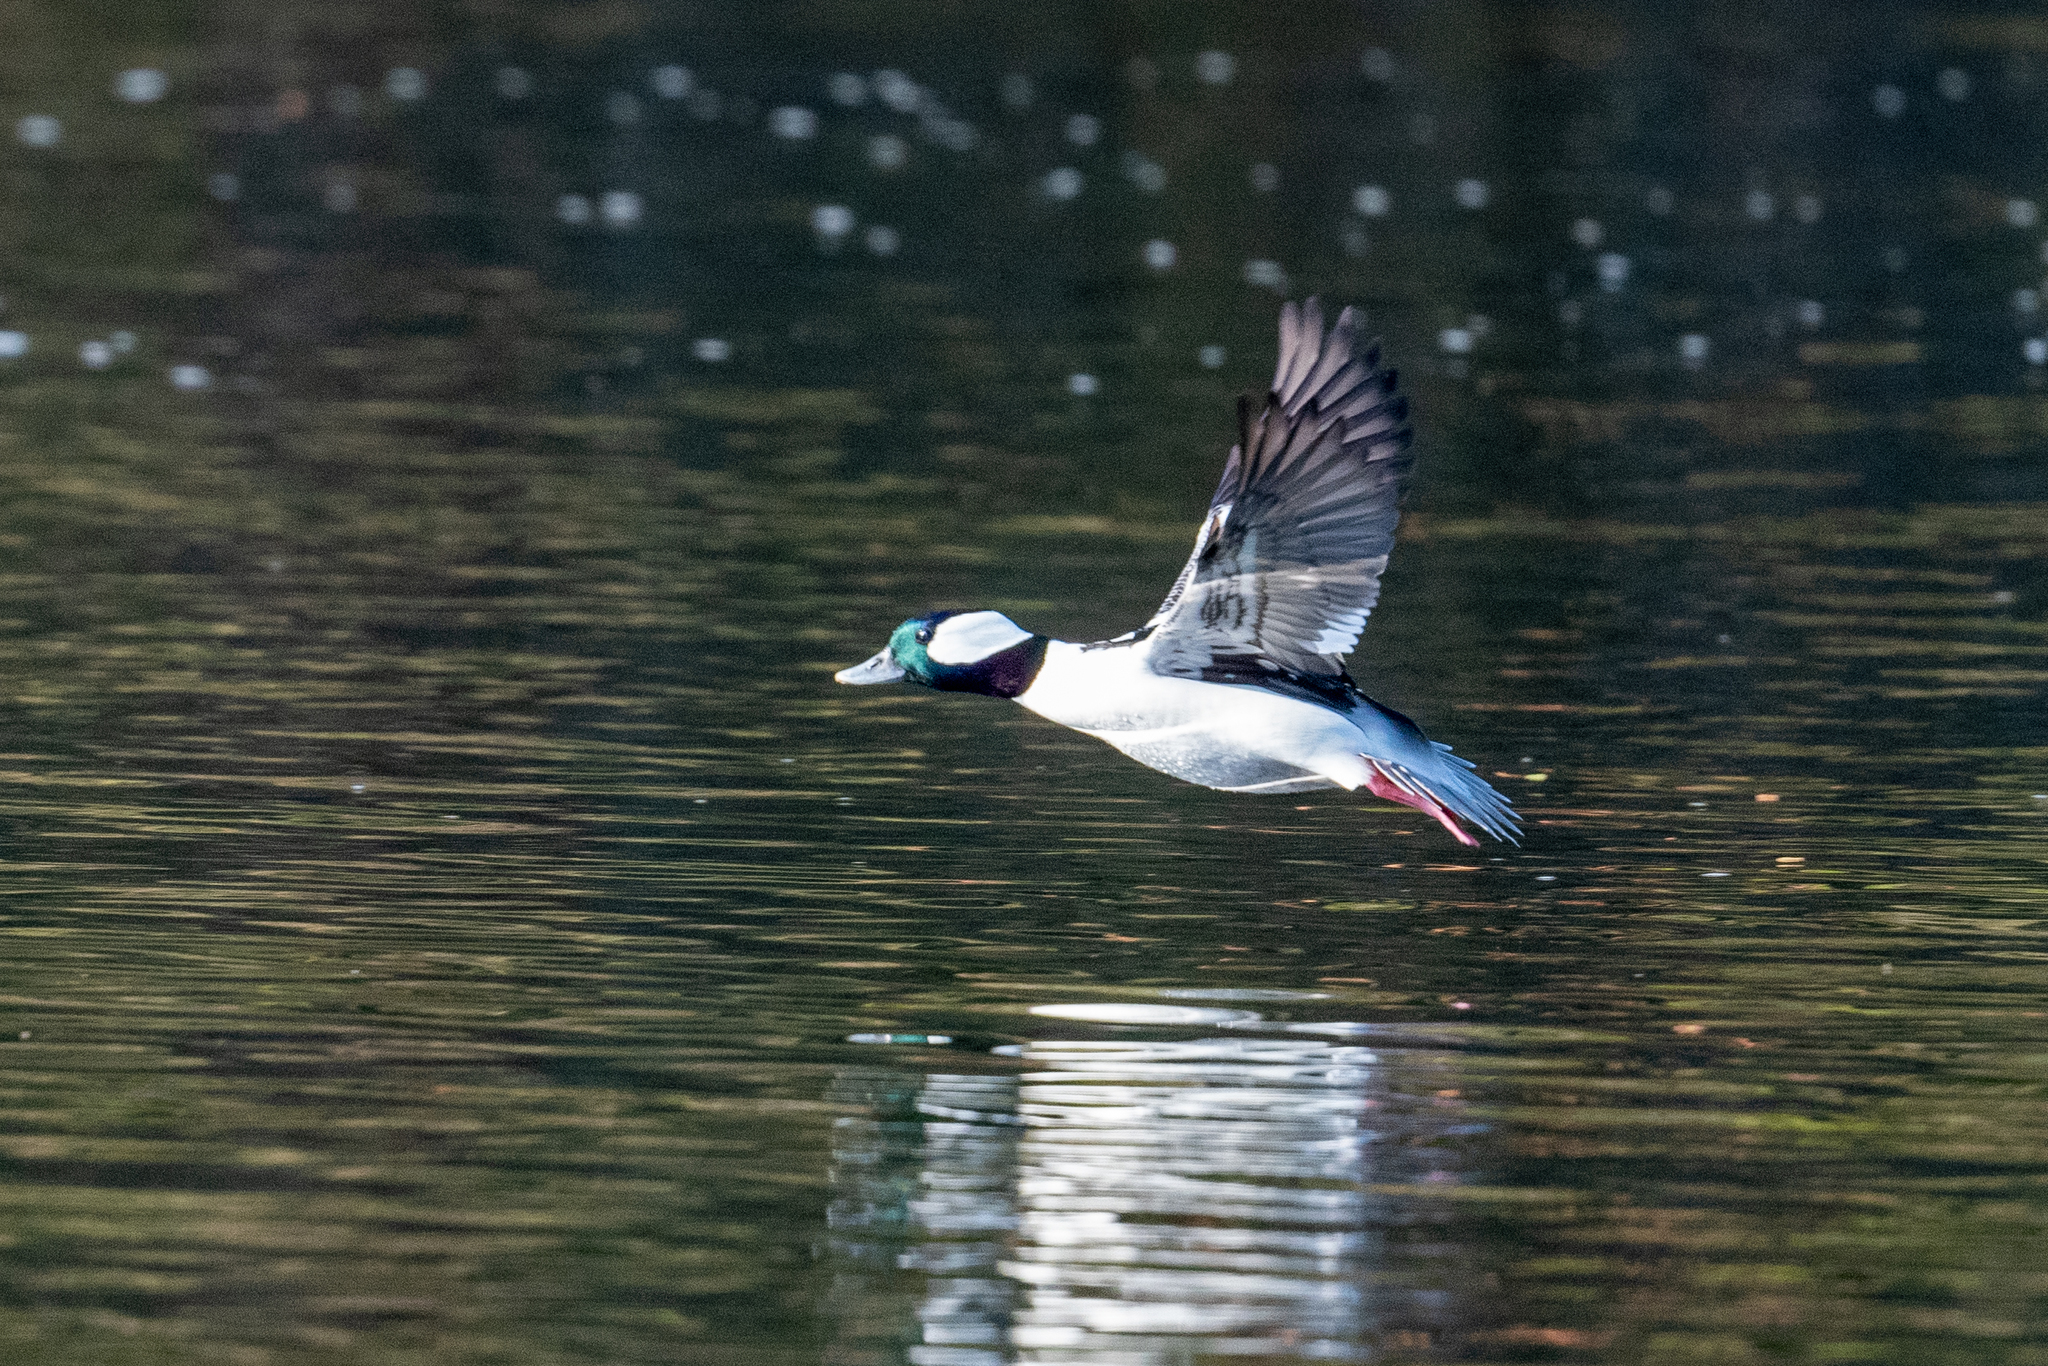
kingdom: Animalia
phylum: Chordata
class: Aves
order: Anseriformes
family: Anatidae
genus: Bucephala
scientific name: Bucephala albeola
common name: Bufflehead
